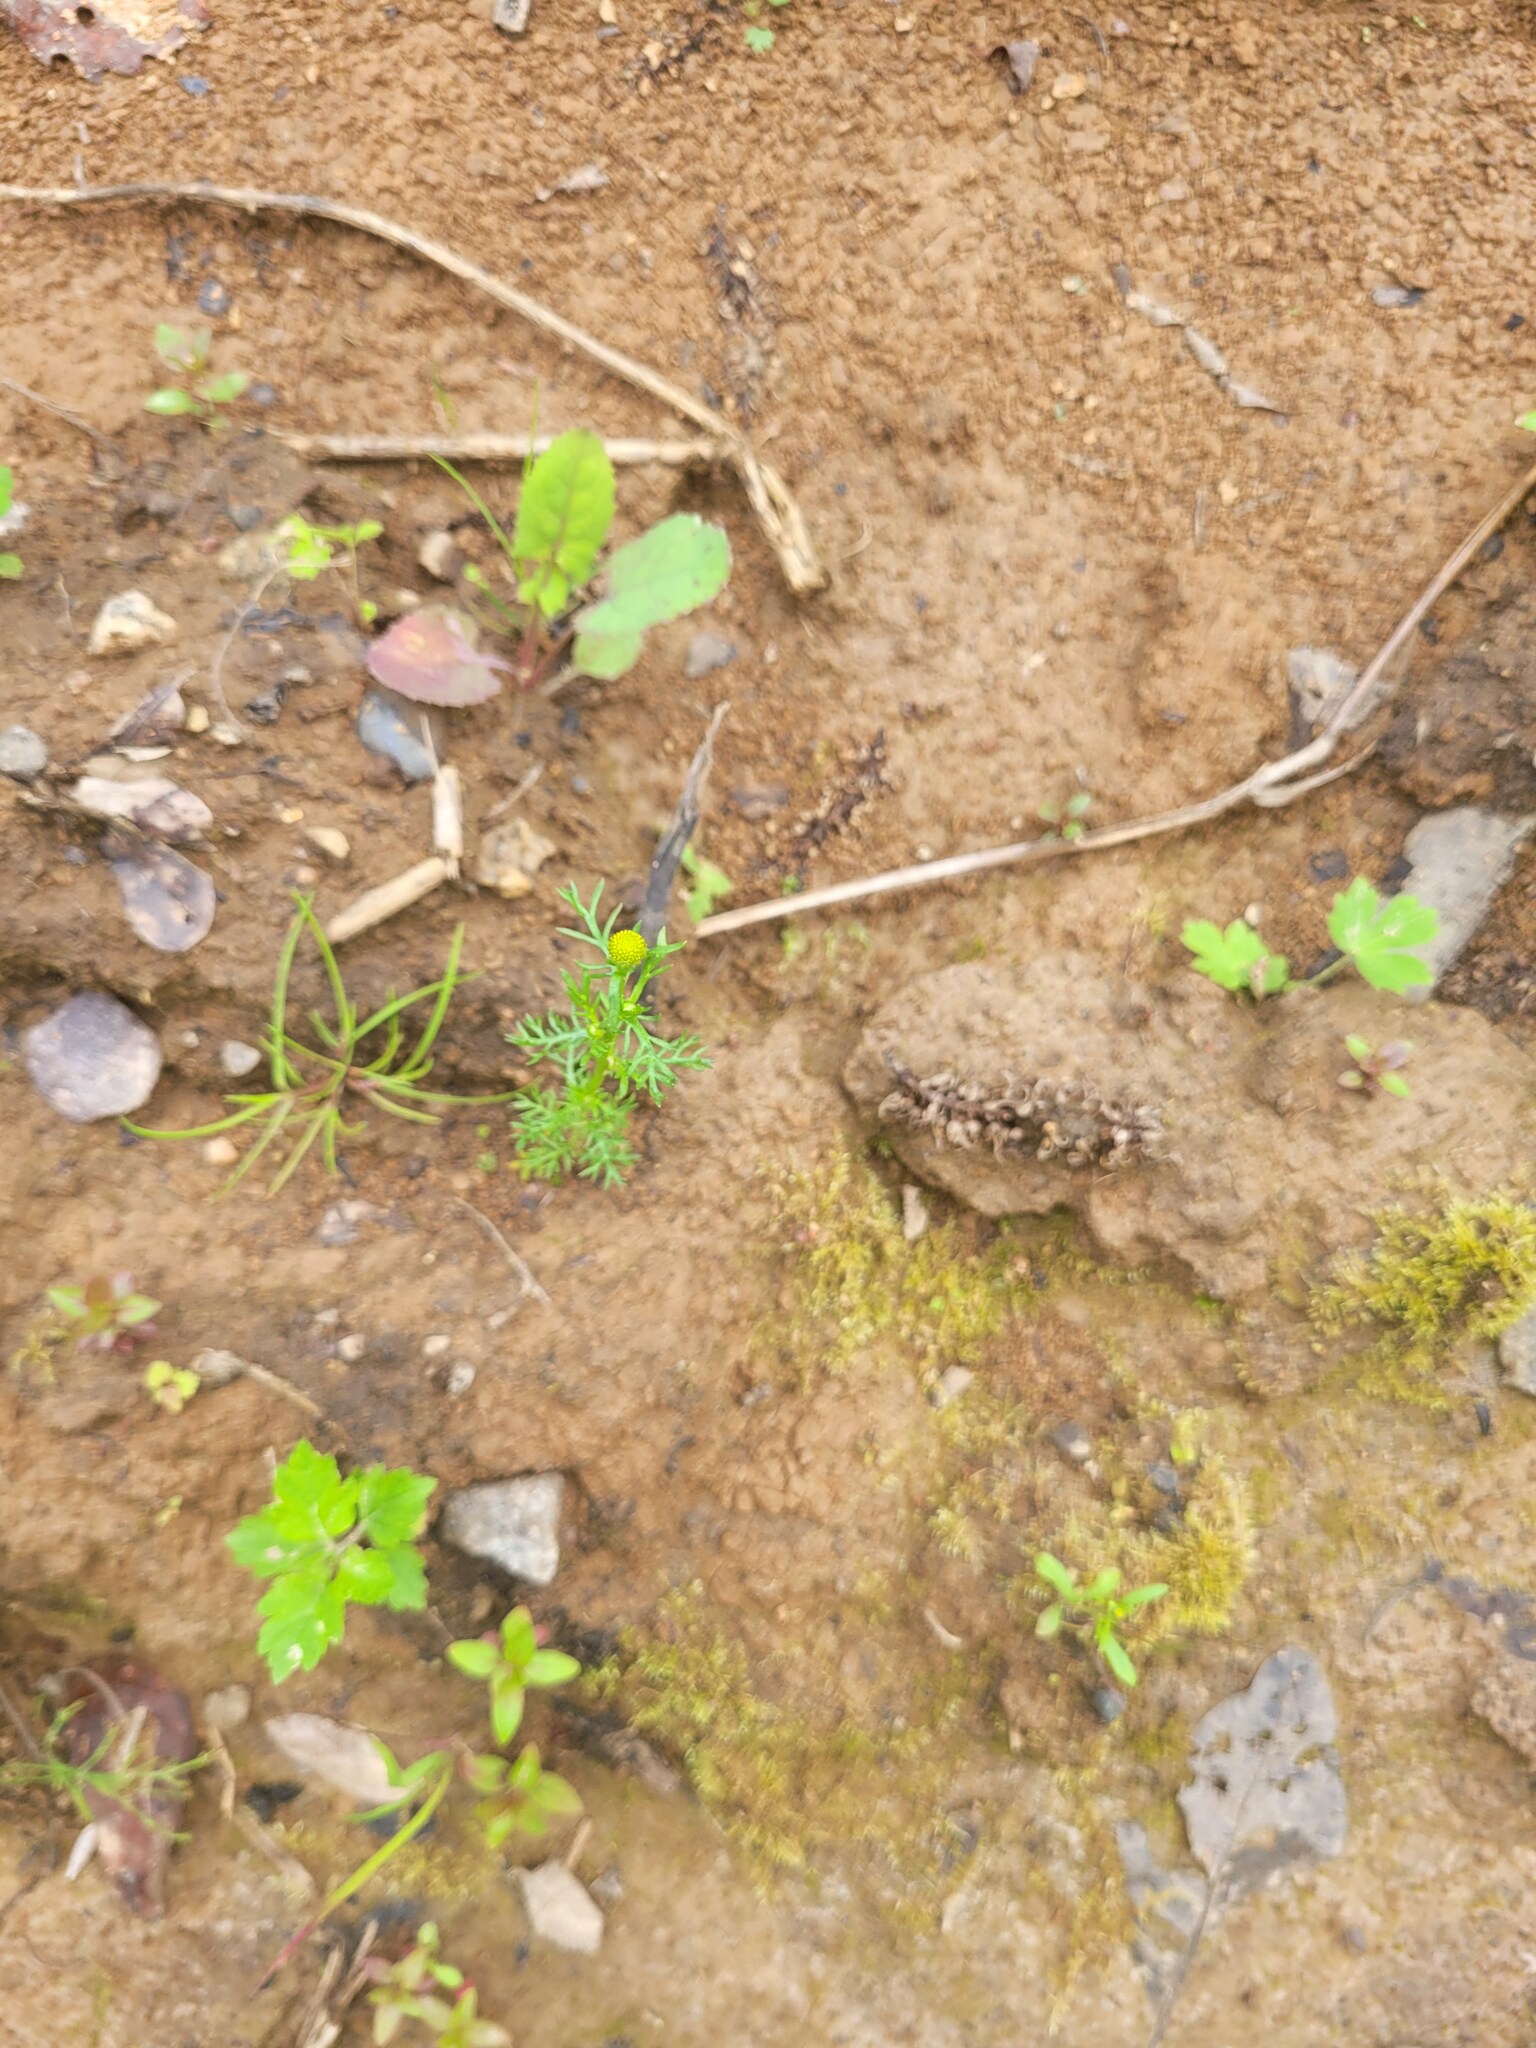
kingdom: Plantae
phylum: Tracheophyta
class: Magnoliopsida
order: Asterales
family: Asteraceae
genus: Matricaria
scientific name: Matricaria discoidea
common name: Disc mayweed
